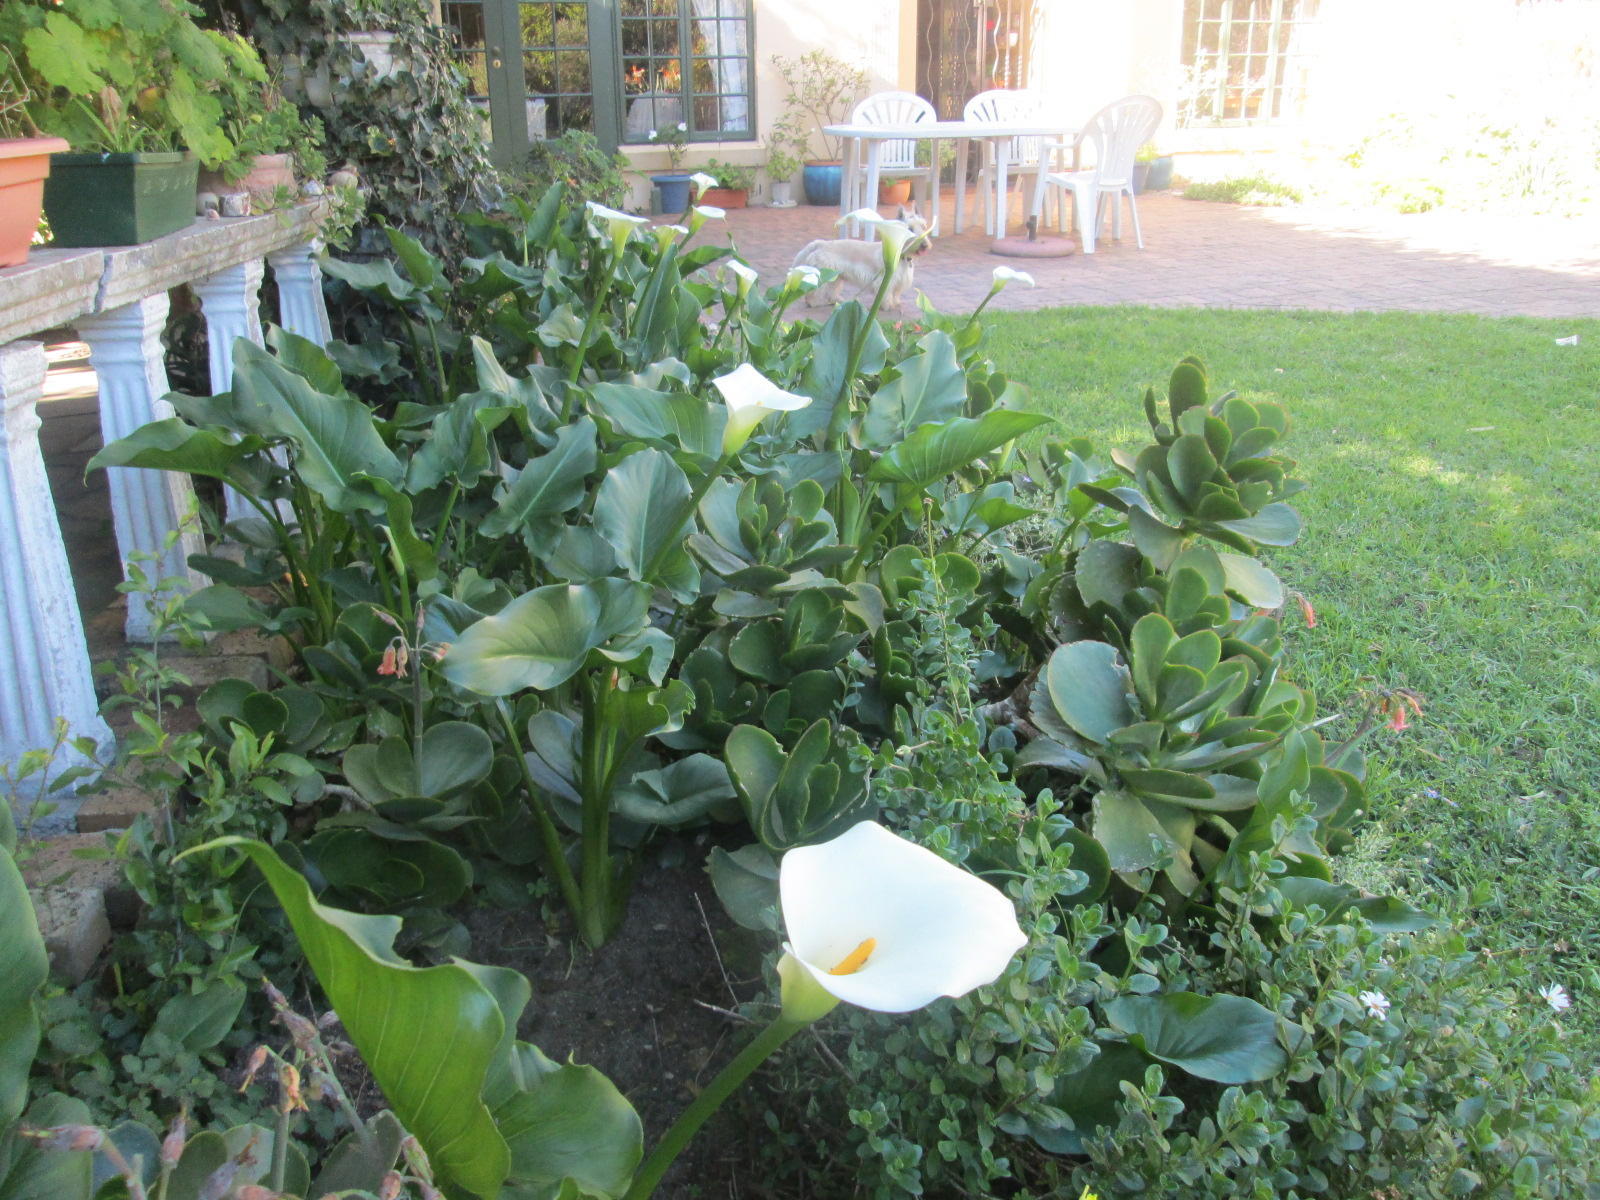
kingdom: Plantae
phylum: Tracheophyta
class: Liliopsida
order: Alismatales
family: Araceae
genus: Zantedeschia
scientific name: Zantedeschia aethiopica
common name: Altar-lily
